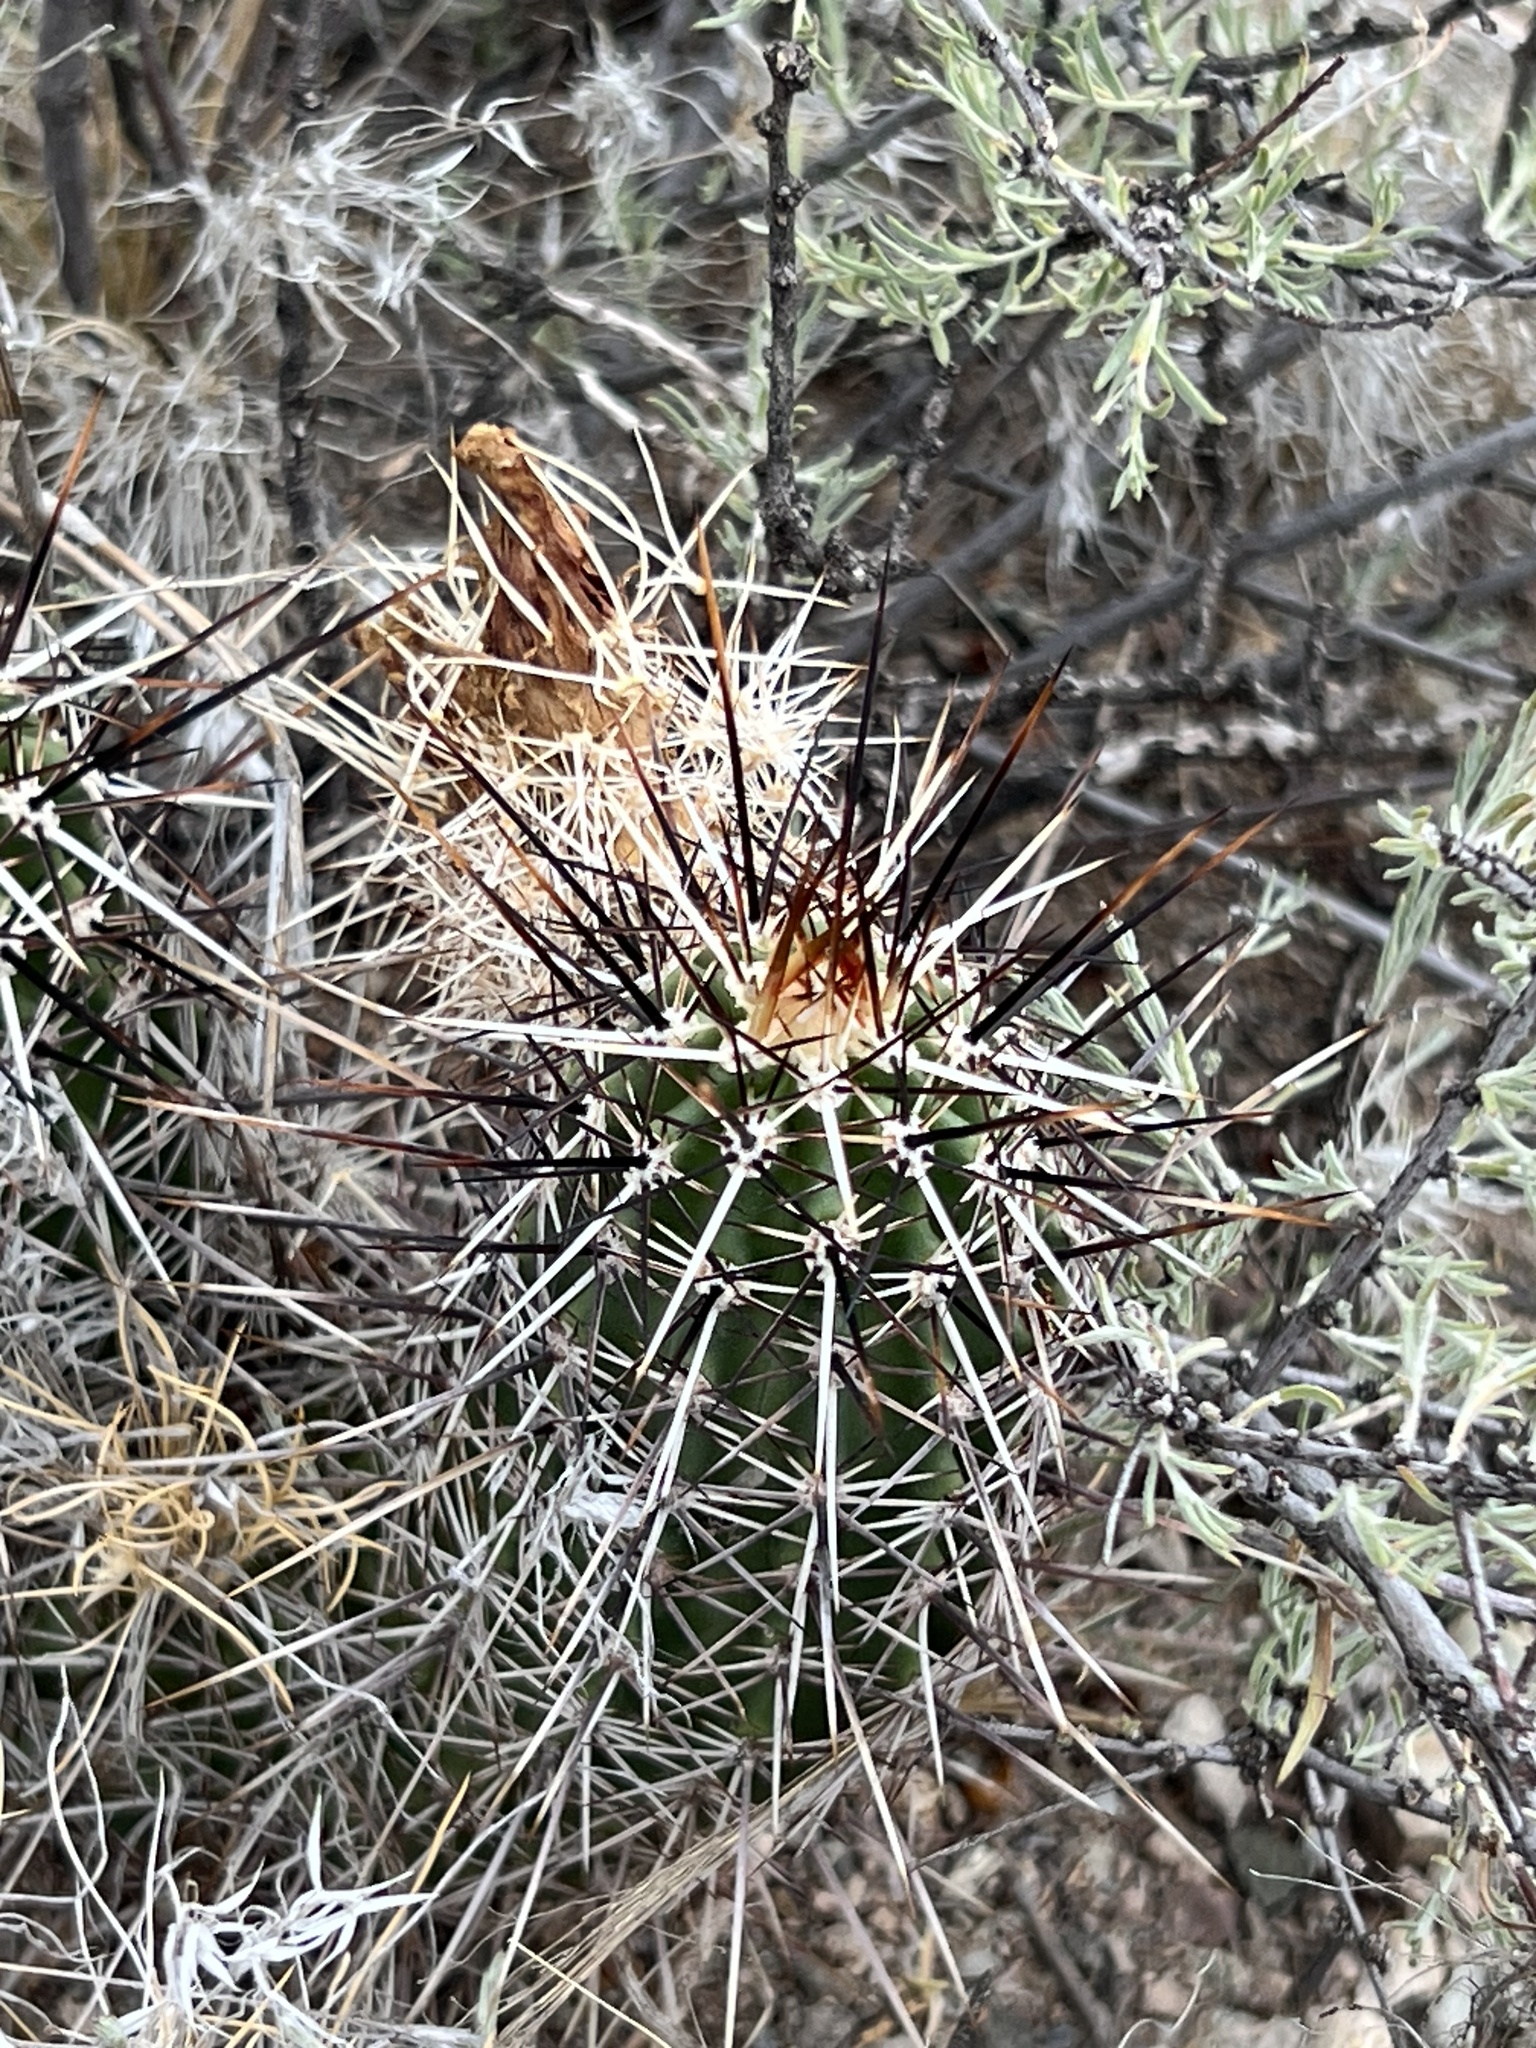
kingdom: Plantae
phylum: Tracheophyta
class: Magnoliopsida
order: Caryophyllales
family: Cactaceae
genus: Echinocereus
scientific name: Echinocereus fasciculatus
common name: Bundle hedgehog
